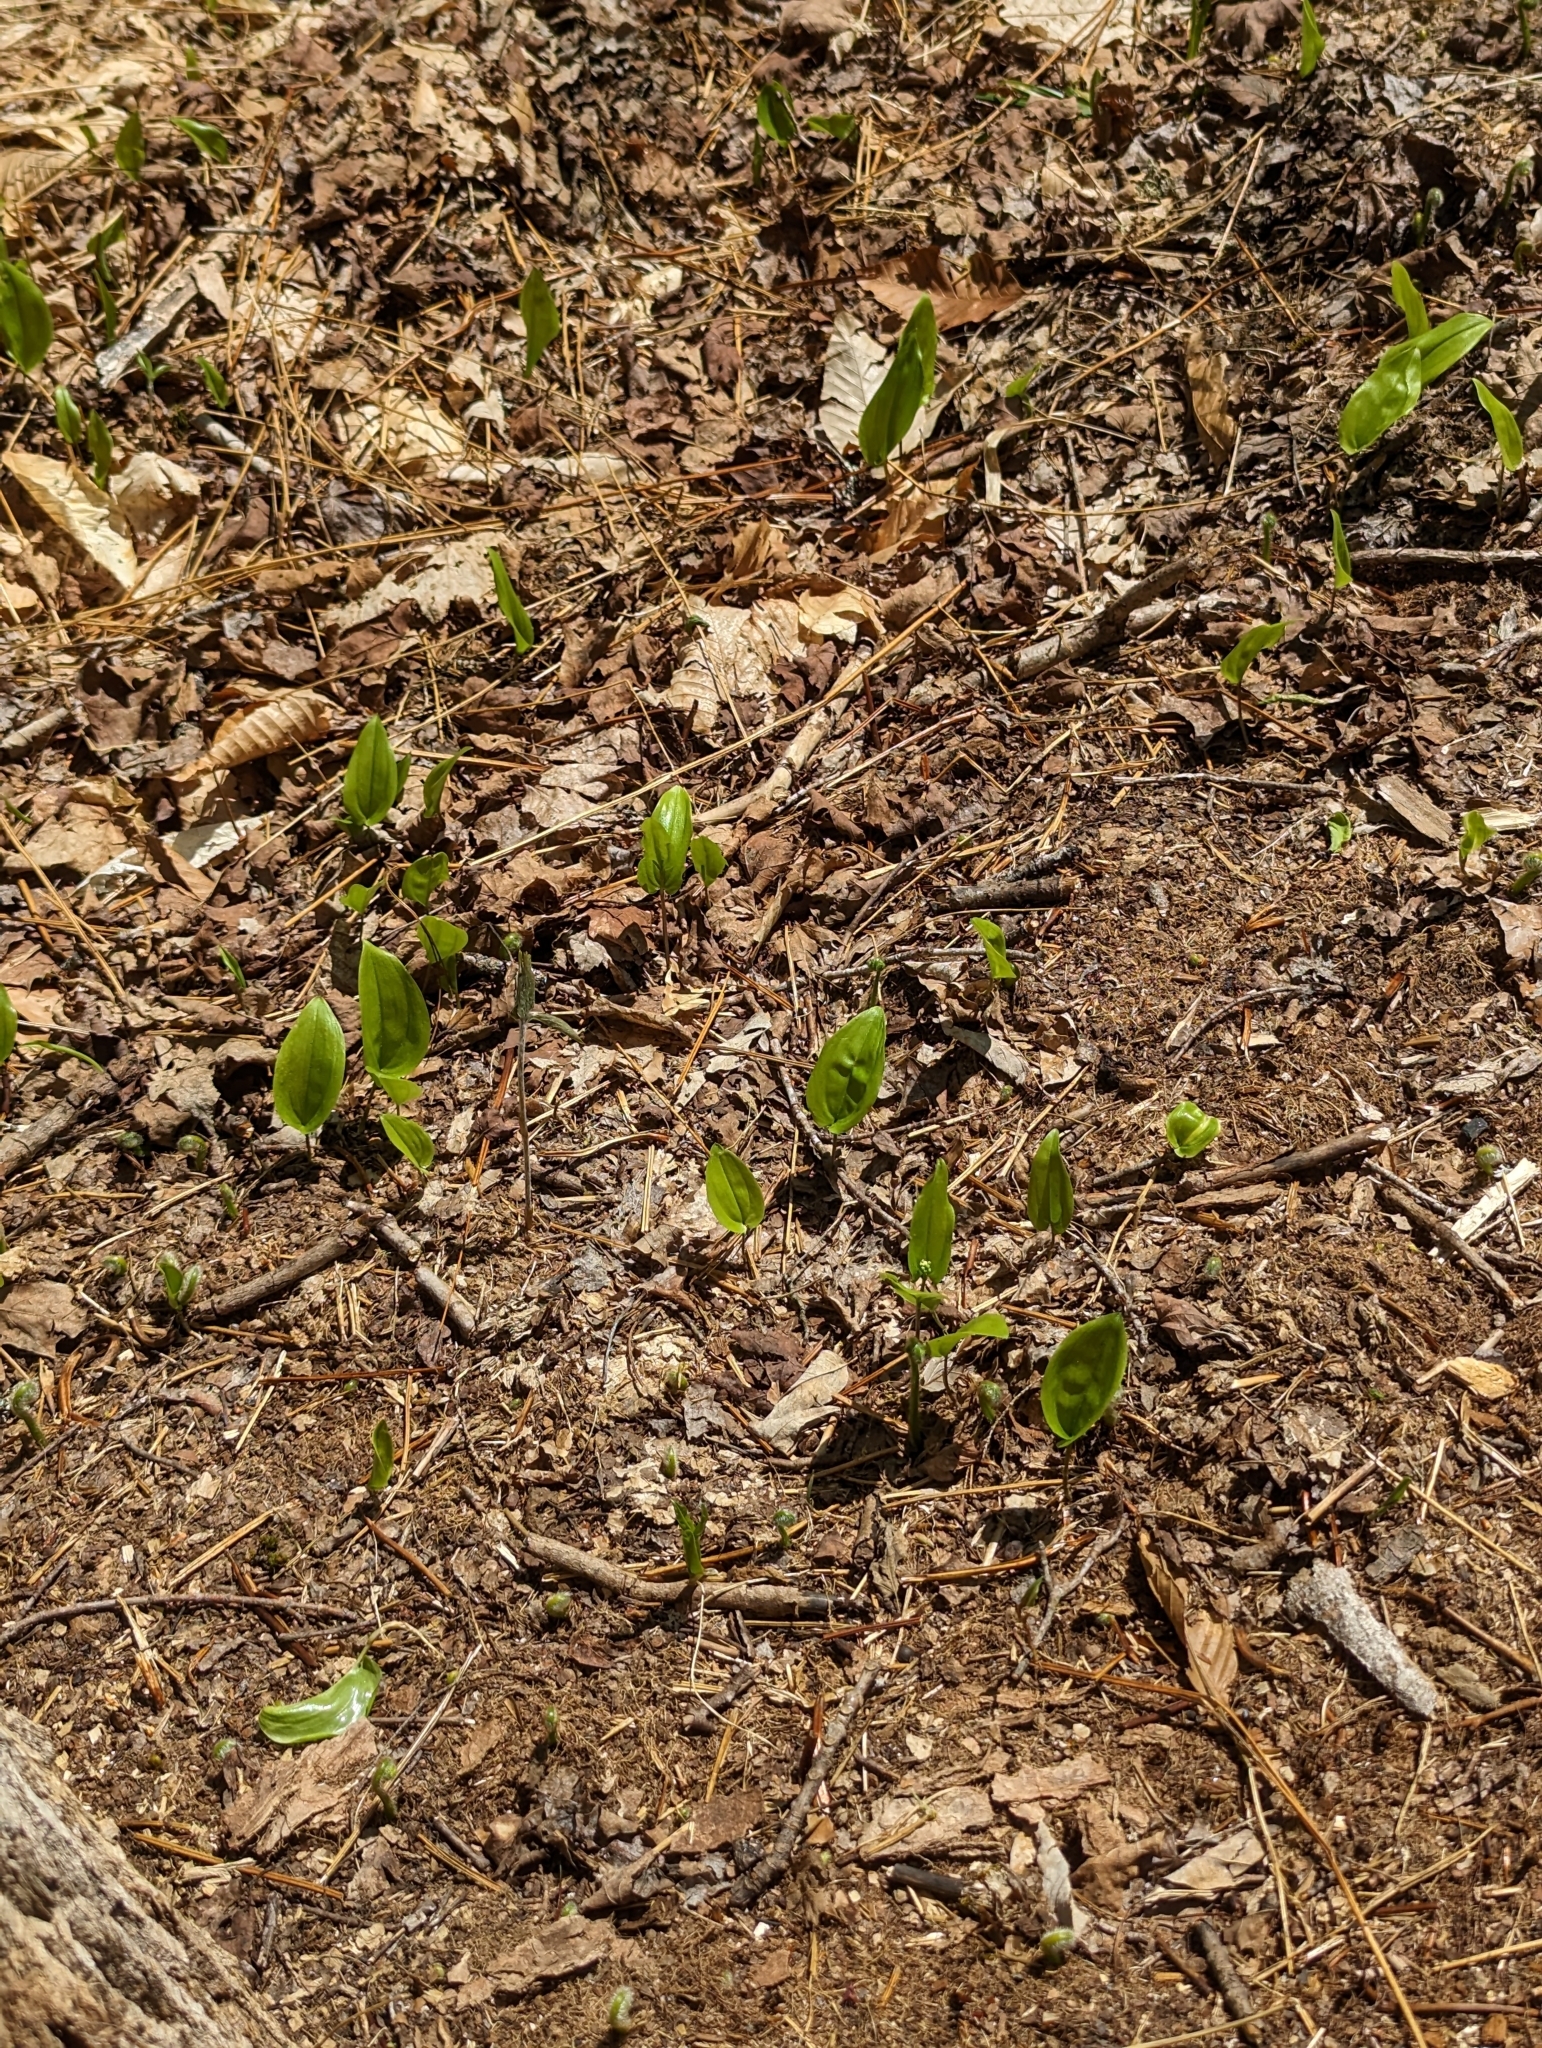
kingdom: Plantae
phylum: Tracheophyta
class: Liliopsida
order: Asparagales
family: Asparagaceae
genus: Maianthemum
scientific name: Maianthemum canadense
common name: False lily-of-the-valley
